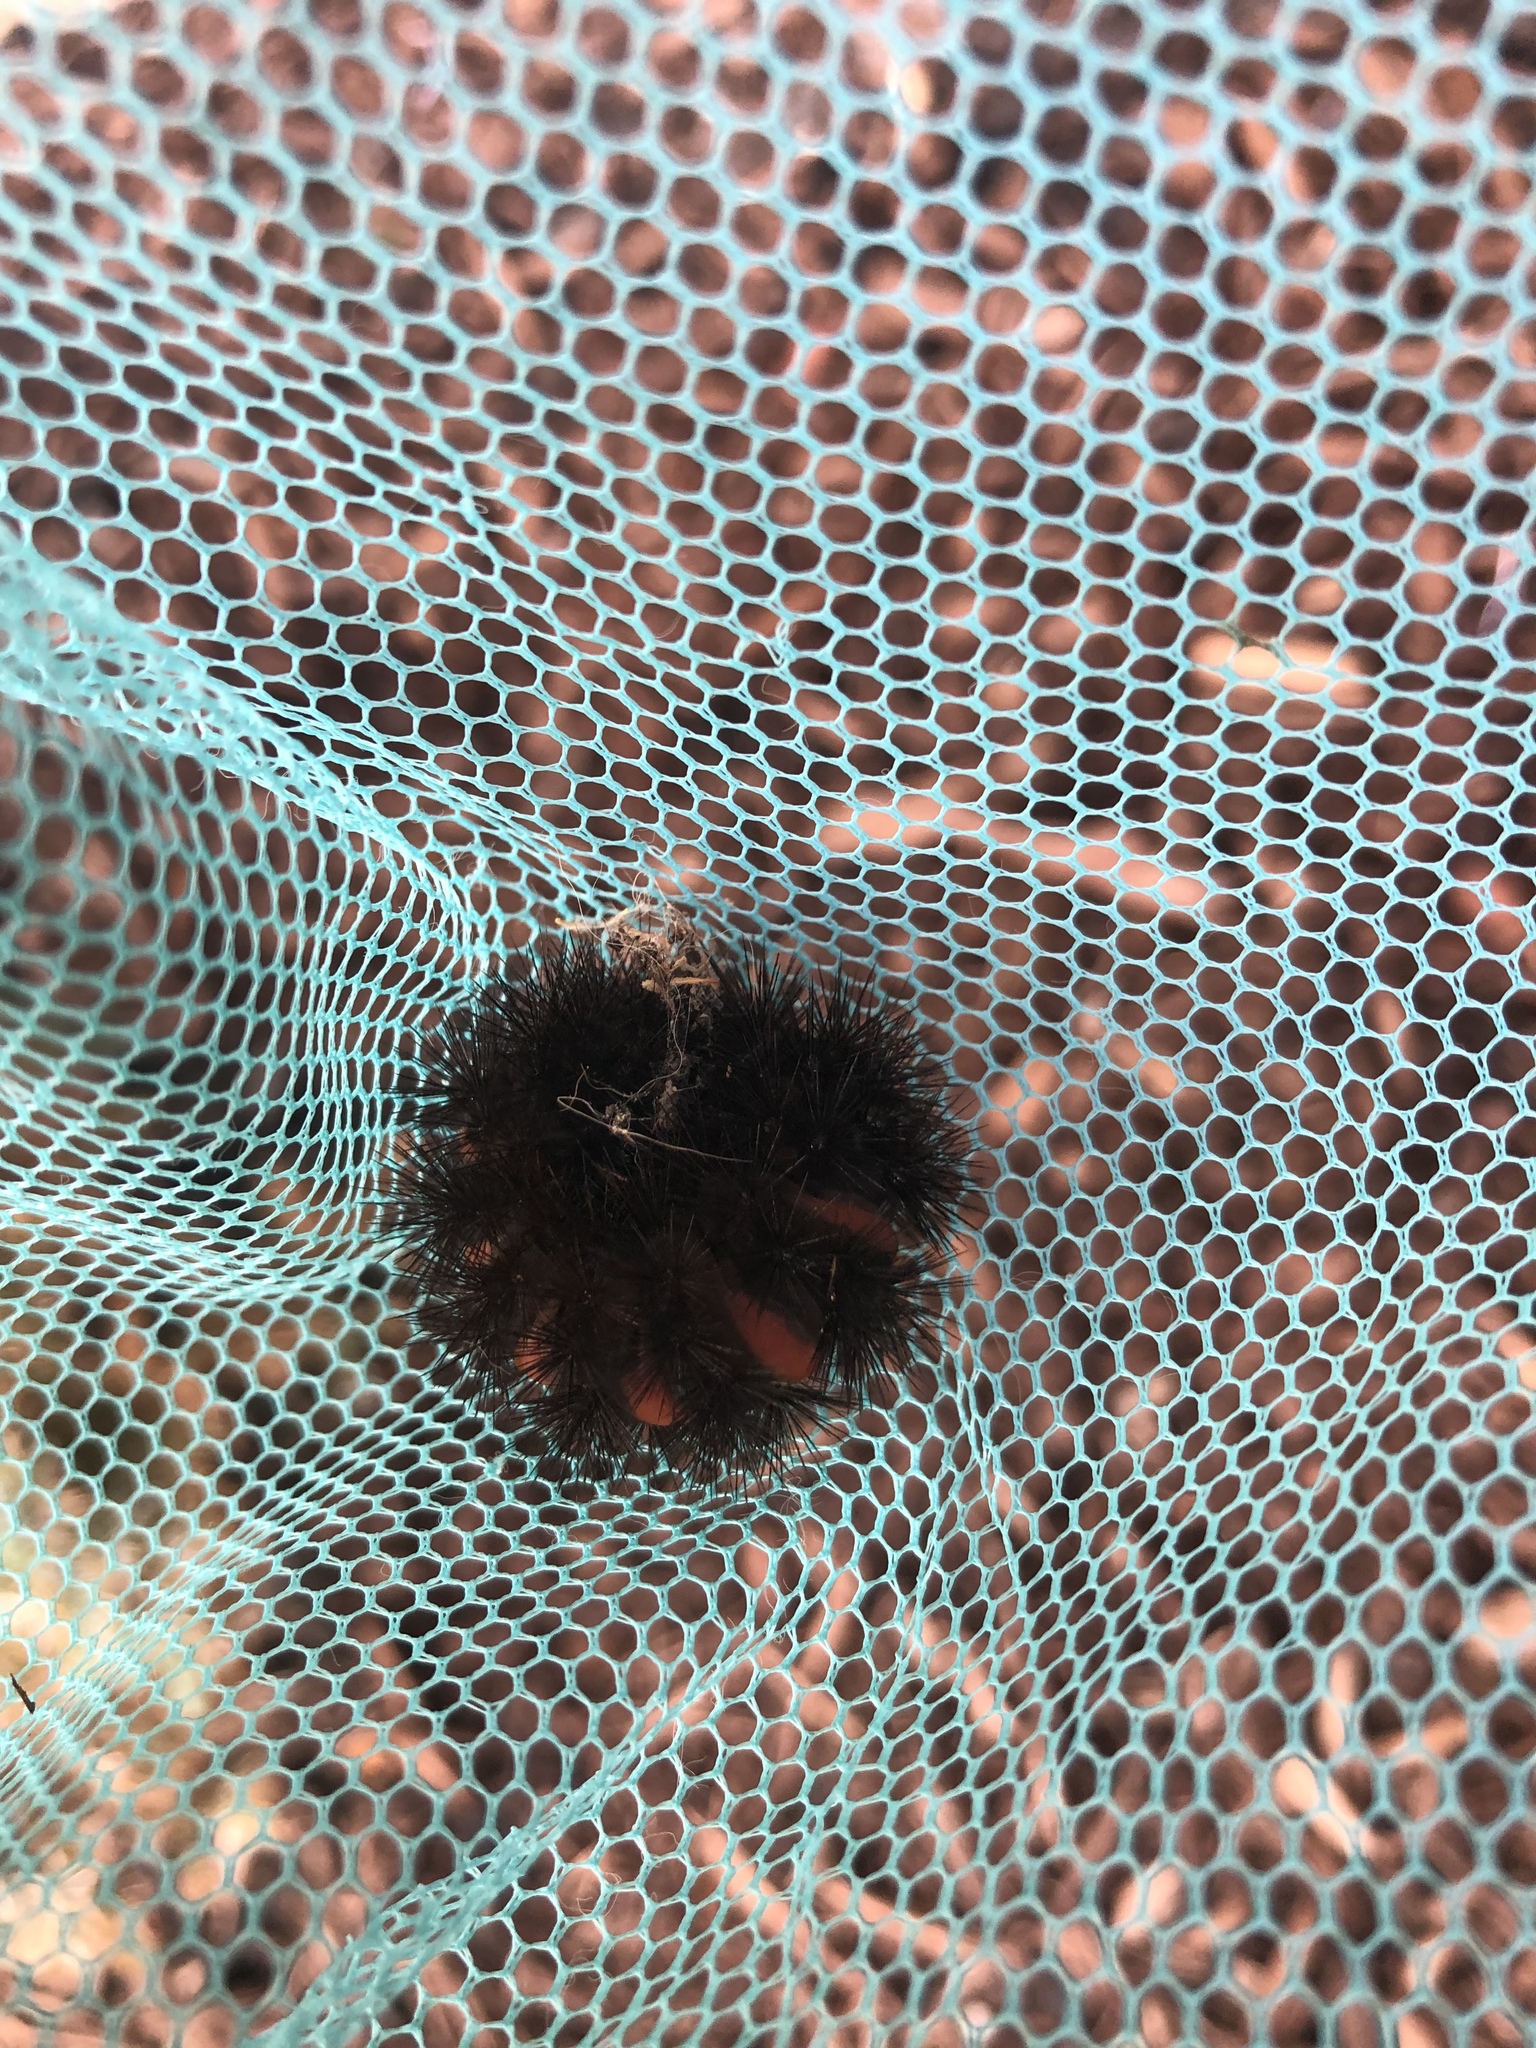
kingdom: Animalia
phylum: Arthropoda
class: Insecta
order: Lepidoptera
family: Erebidae
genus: Hypercompe
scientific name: Hypercompe scribonia
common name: Giant leopard moth
